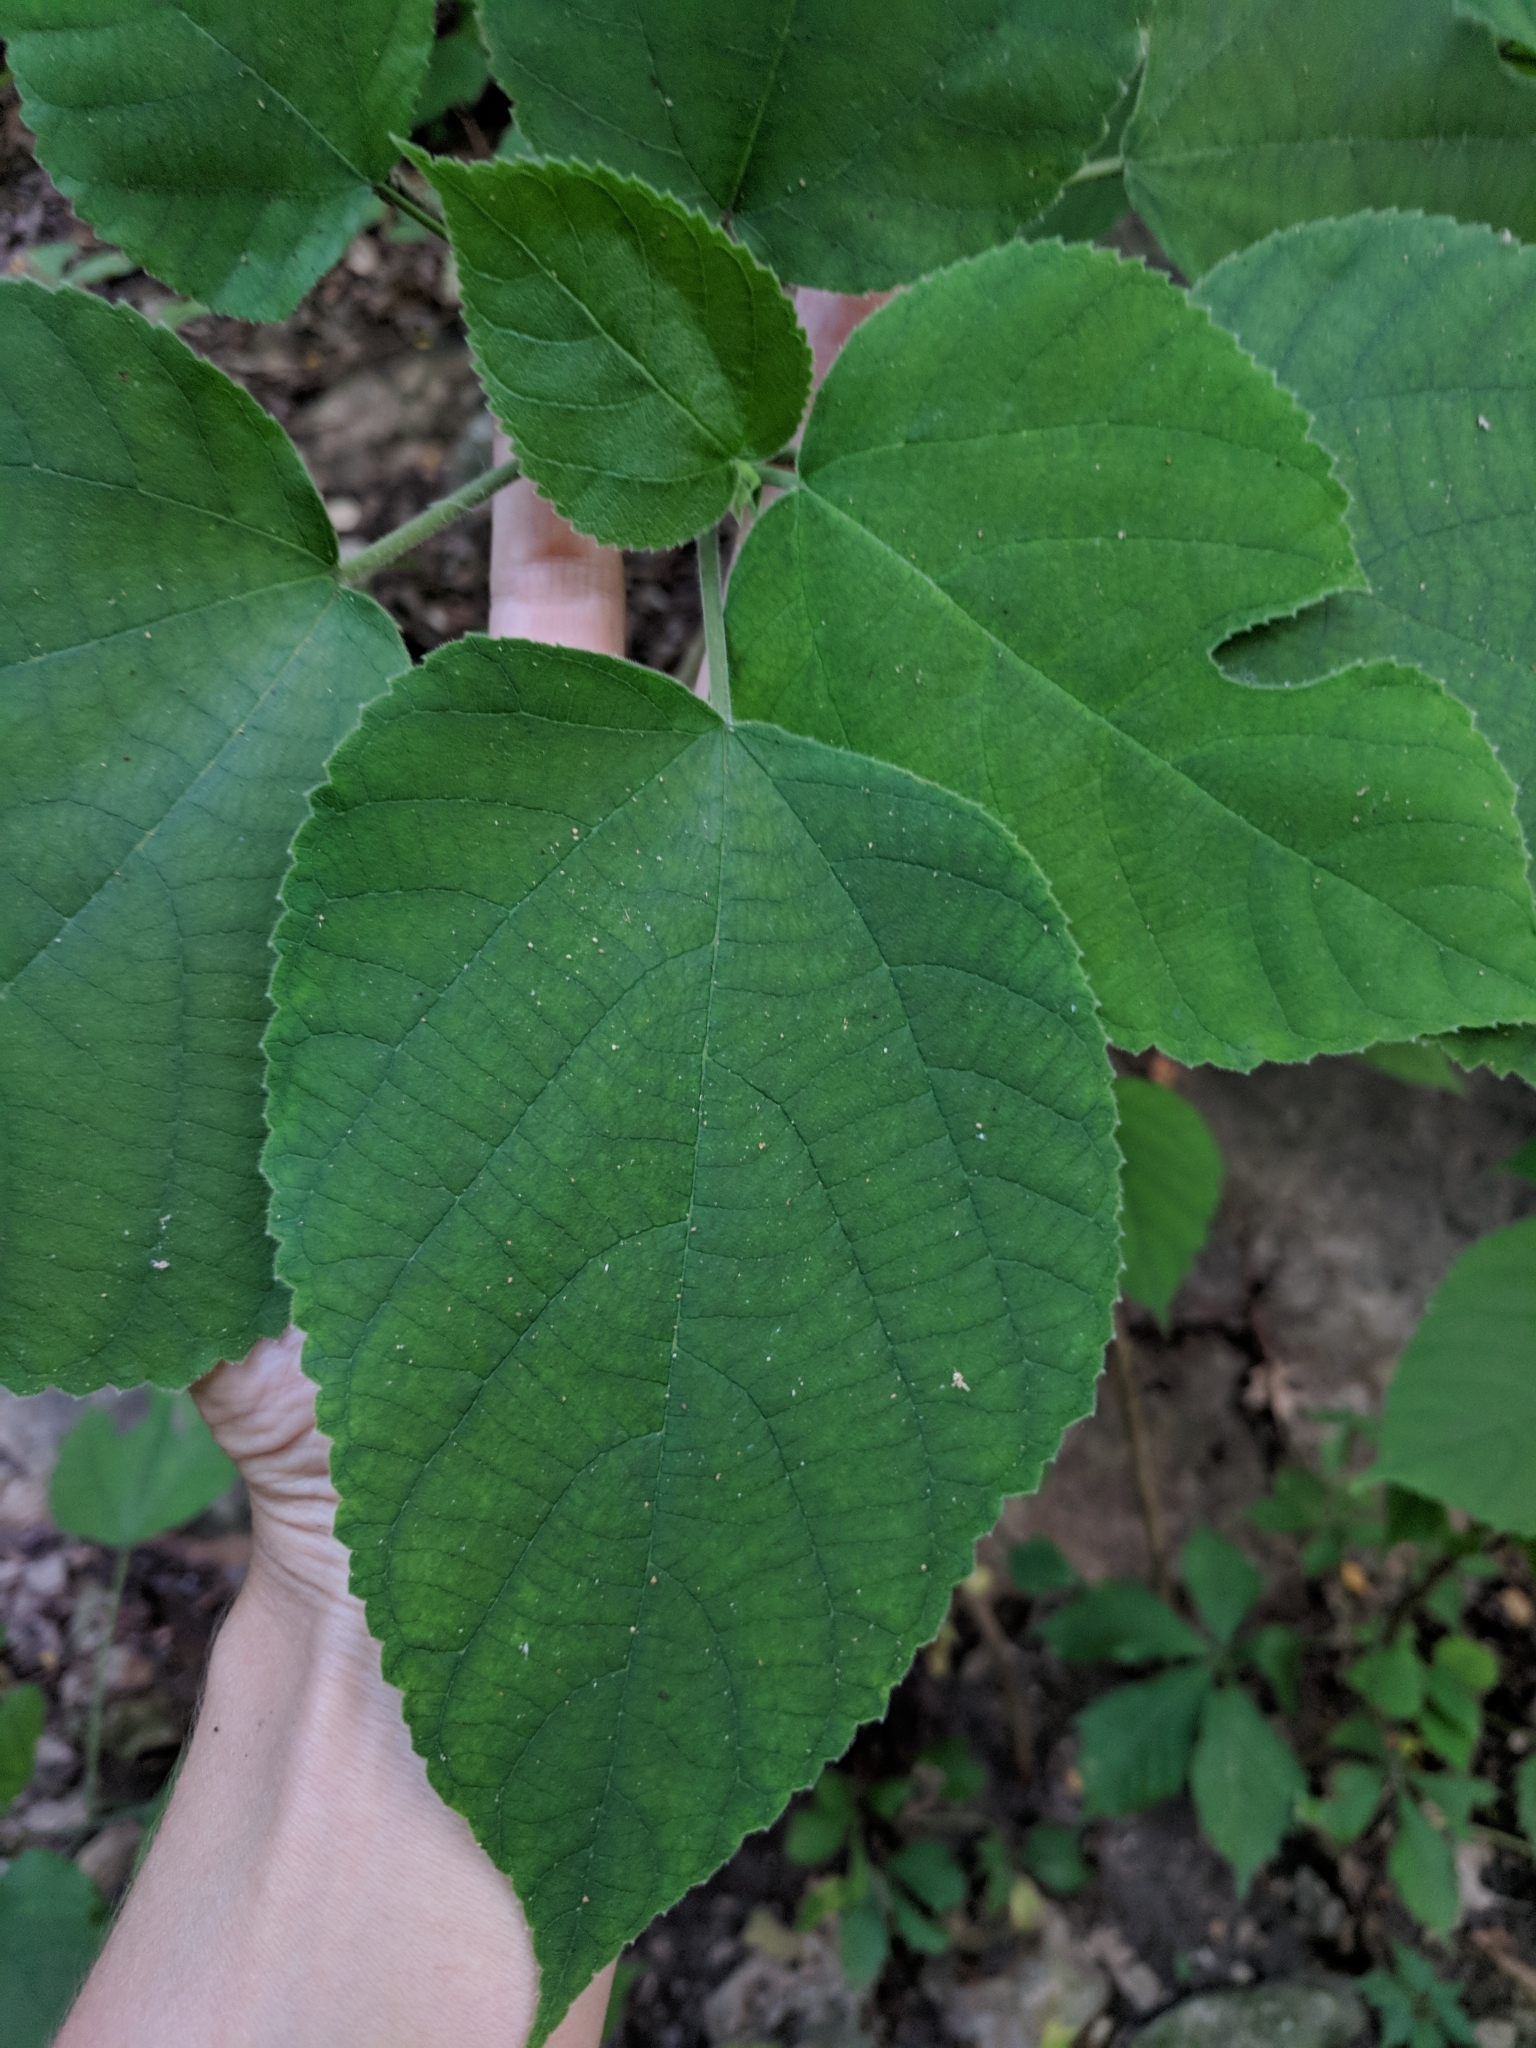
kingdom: Plantae
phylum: Tracheophyta
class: Magnoliopsida
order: Rosales
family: Moraceae
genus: Broussonetia
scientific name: Broussonetia papyrifera
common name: Paper mulberry
